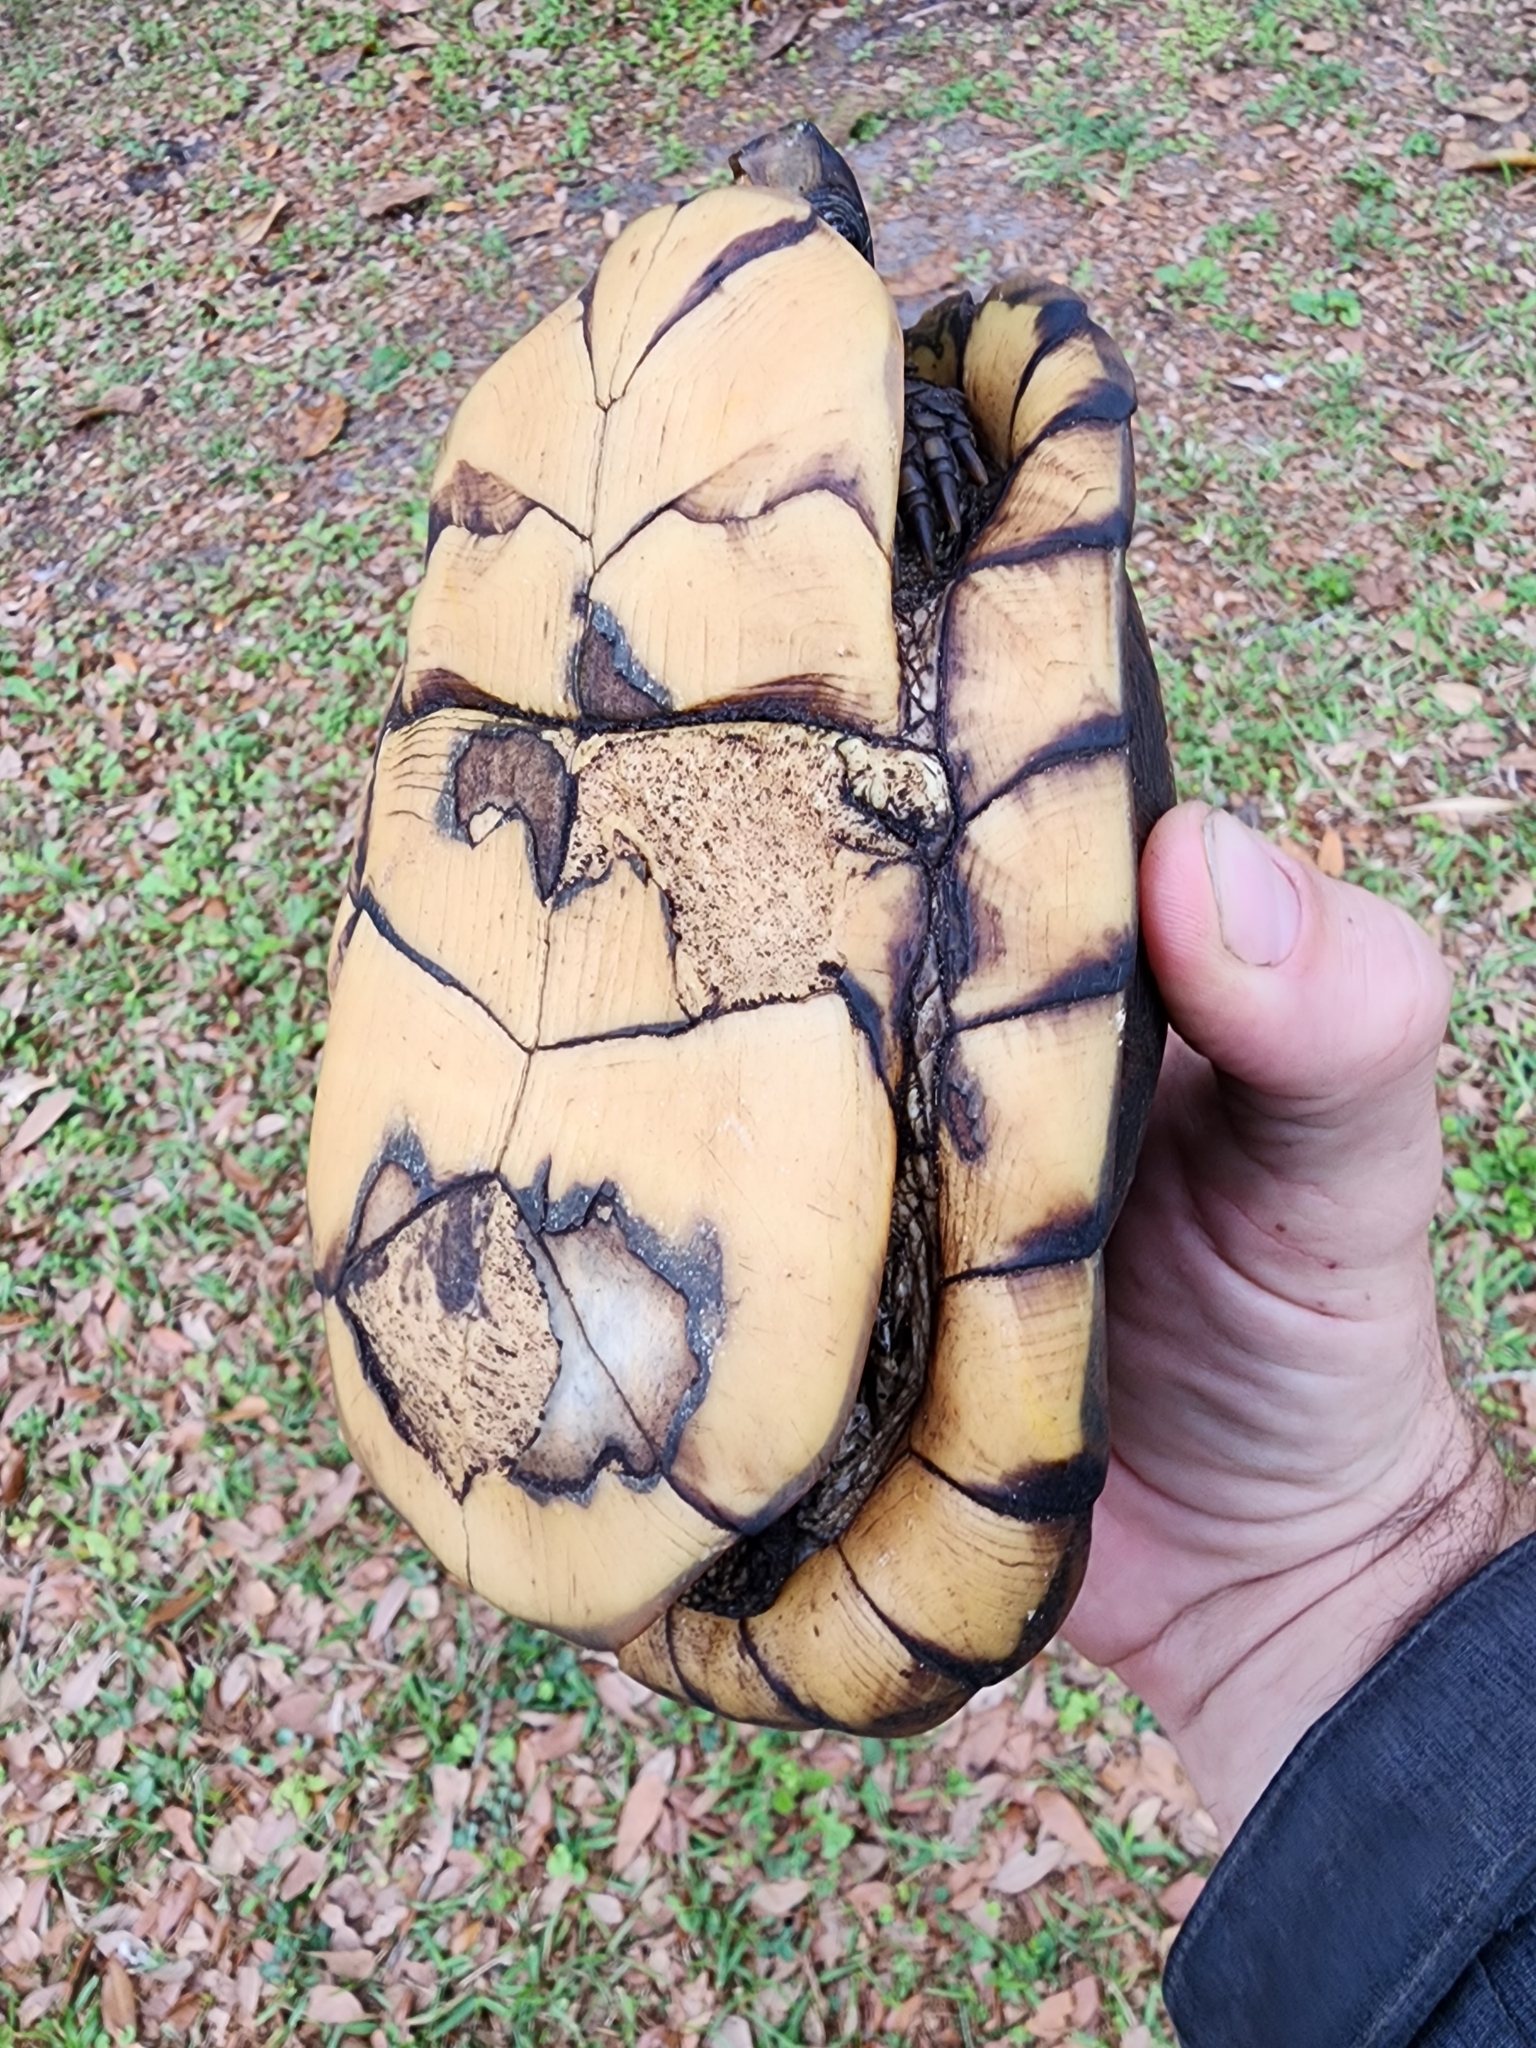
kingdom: Animalia
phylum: Chordata
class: Testudines
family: Emydidae
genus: Terrapene
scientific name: Terrapene carolina
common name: Common box turtle
